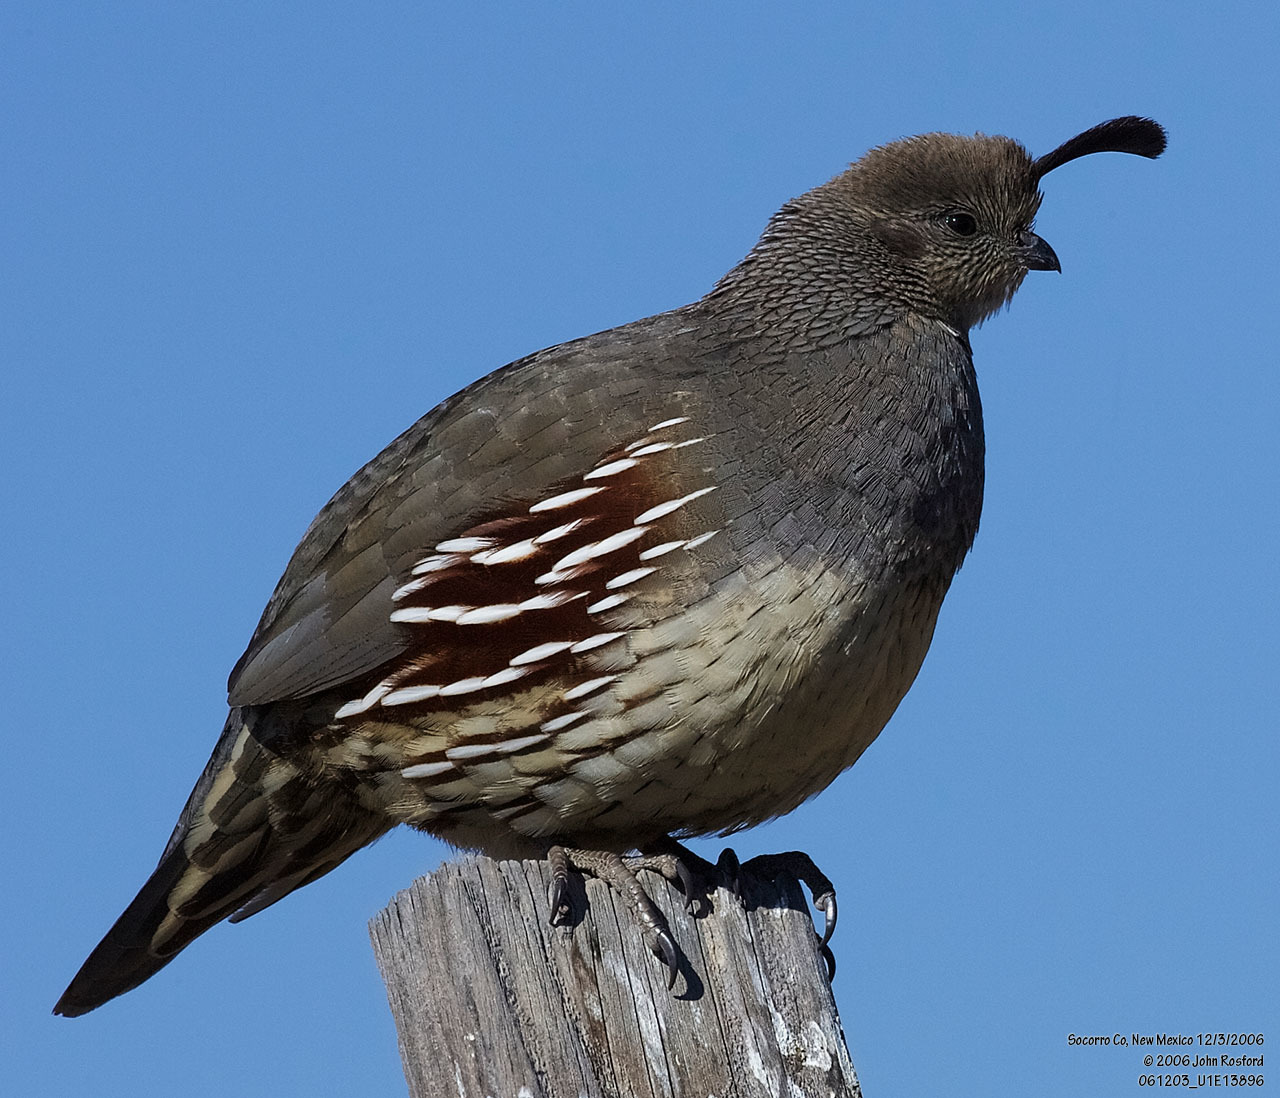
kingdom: Animalia
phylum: Chordata
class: Aves
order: Galliformes
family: Odontophoridae
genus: Callipepla
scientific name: Callipepla gambelii
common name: Gambel's quail
